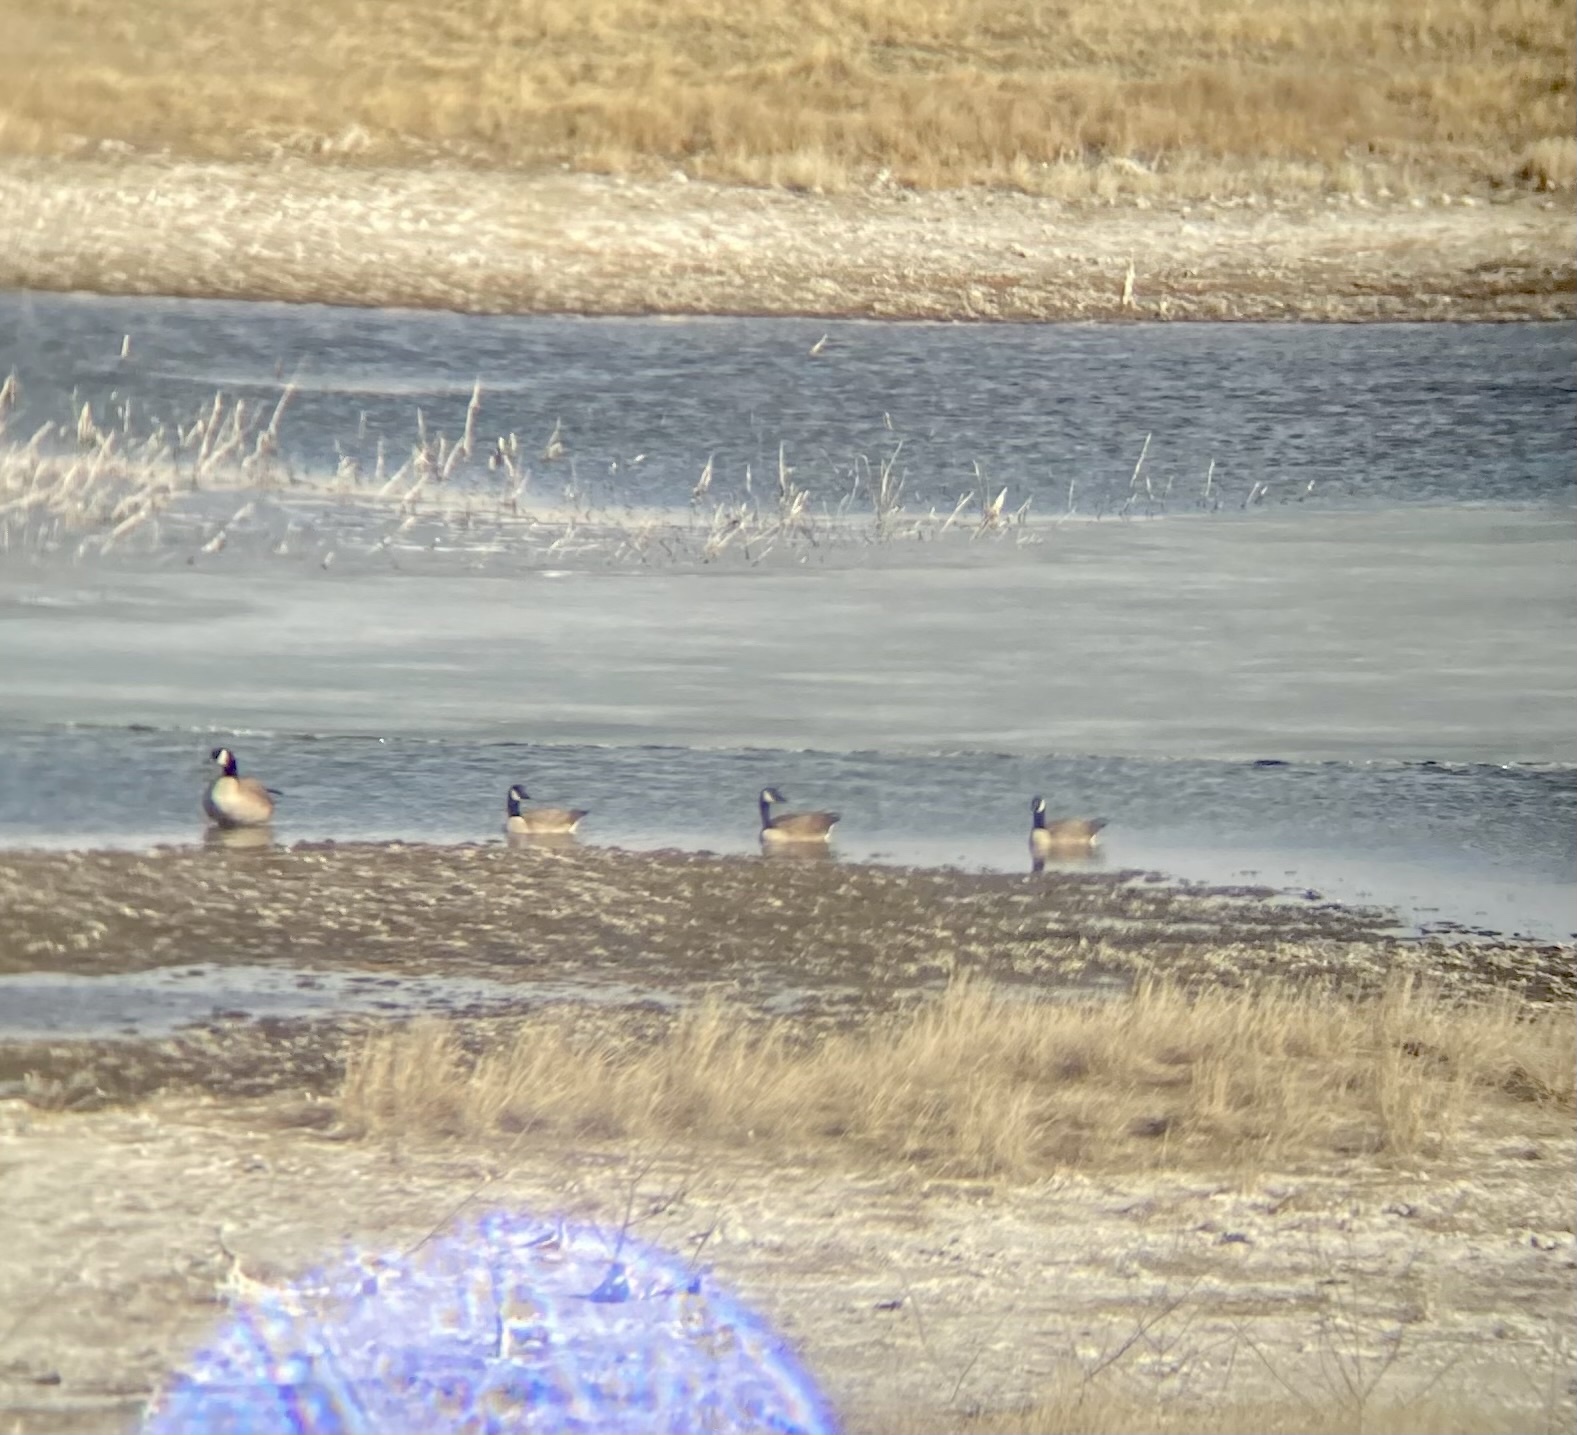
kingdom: Animalia
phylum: Chordata
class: Aves
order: Anseriformes
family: Anatidae
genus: Branta
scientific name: Branta canadensis
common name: Canada goose
